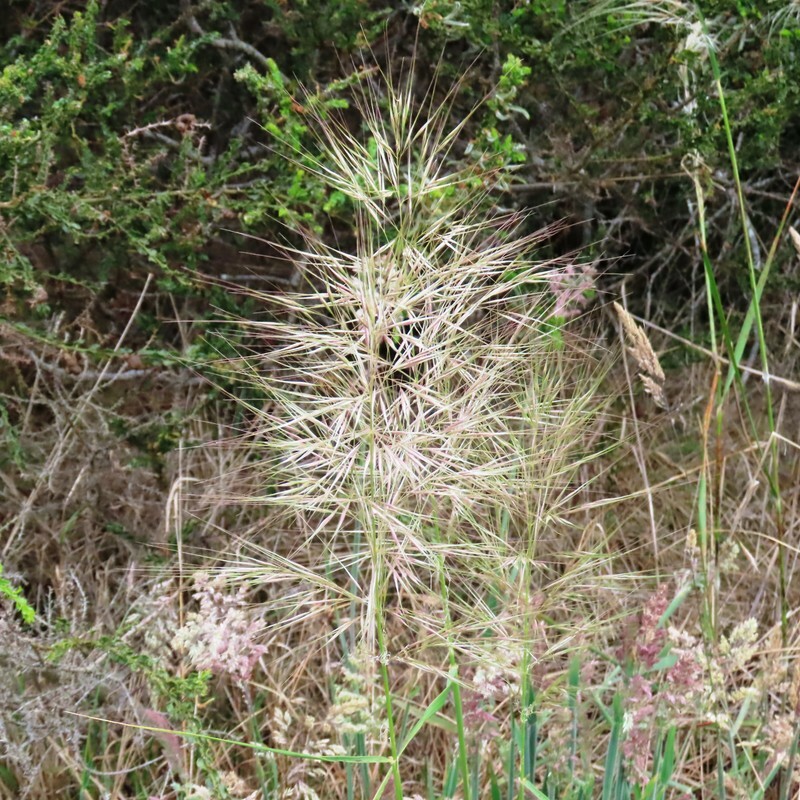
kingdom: Plantae
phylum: Tracheophyta
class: Liliopsida
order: Poales
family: Poaceae
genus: Austrostipa
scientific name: Austrostipa mollis
